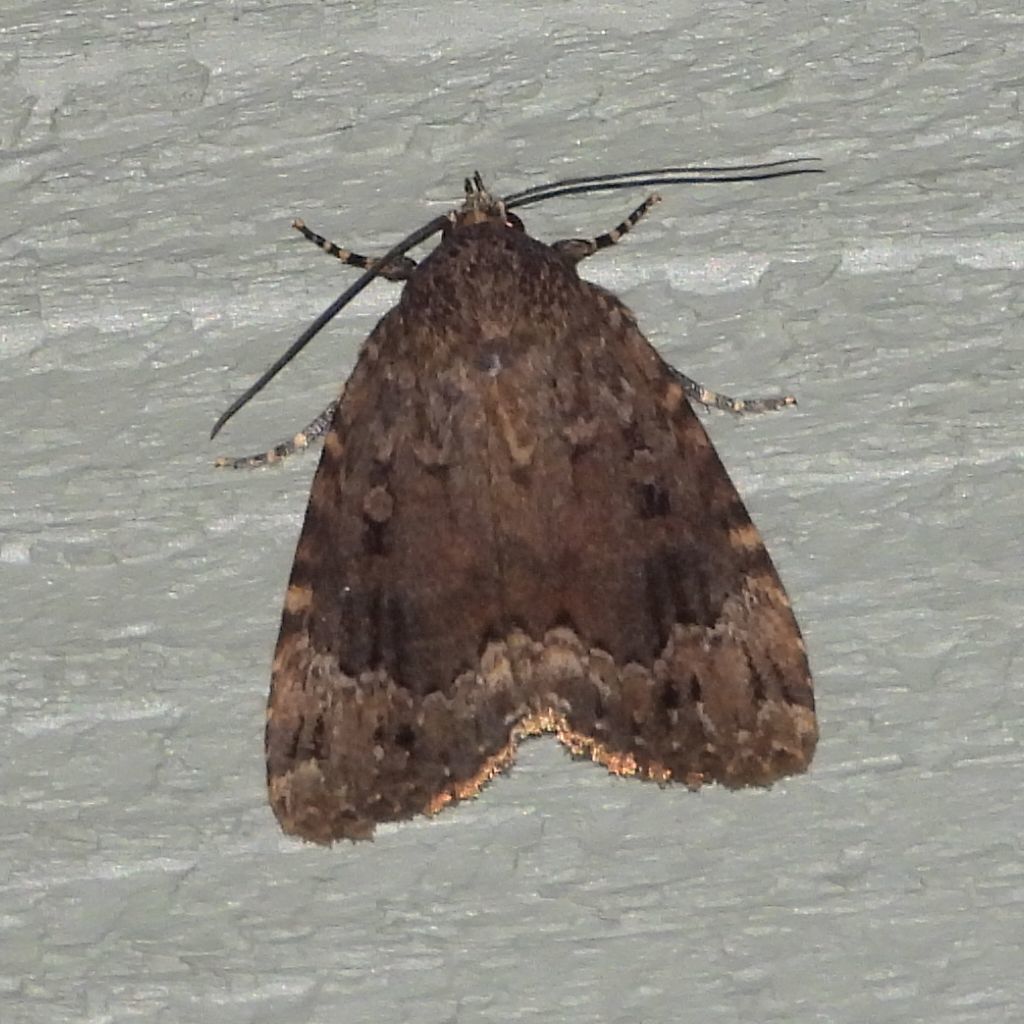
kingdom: Animalia
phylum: Arthropoda
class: Insecta
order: Lepidoptera
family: Noctuidae
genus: Amphipyra
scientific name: Amphipyra pyramidoides
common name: American copper underwing
